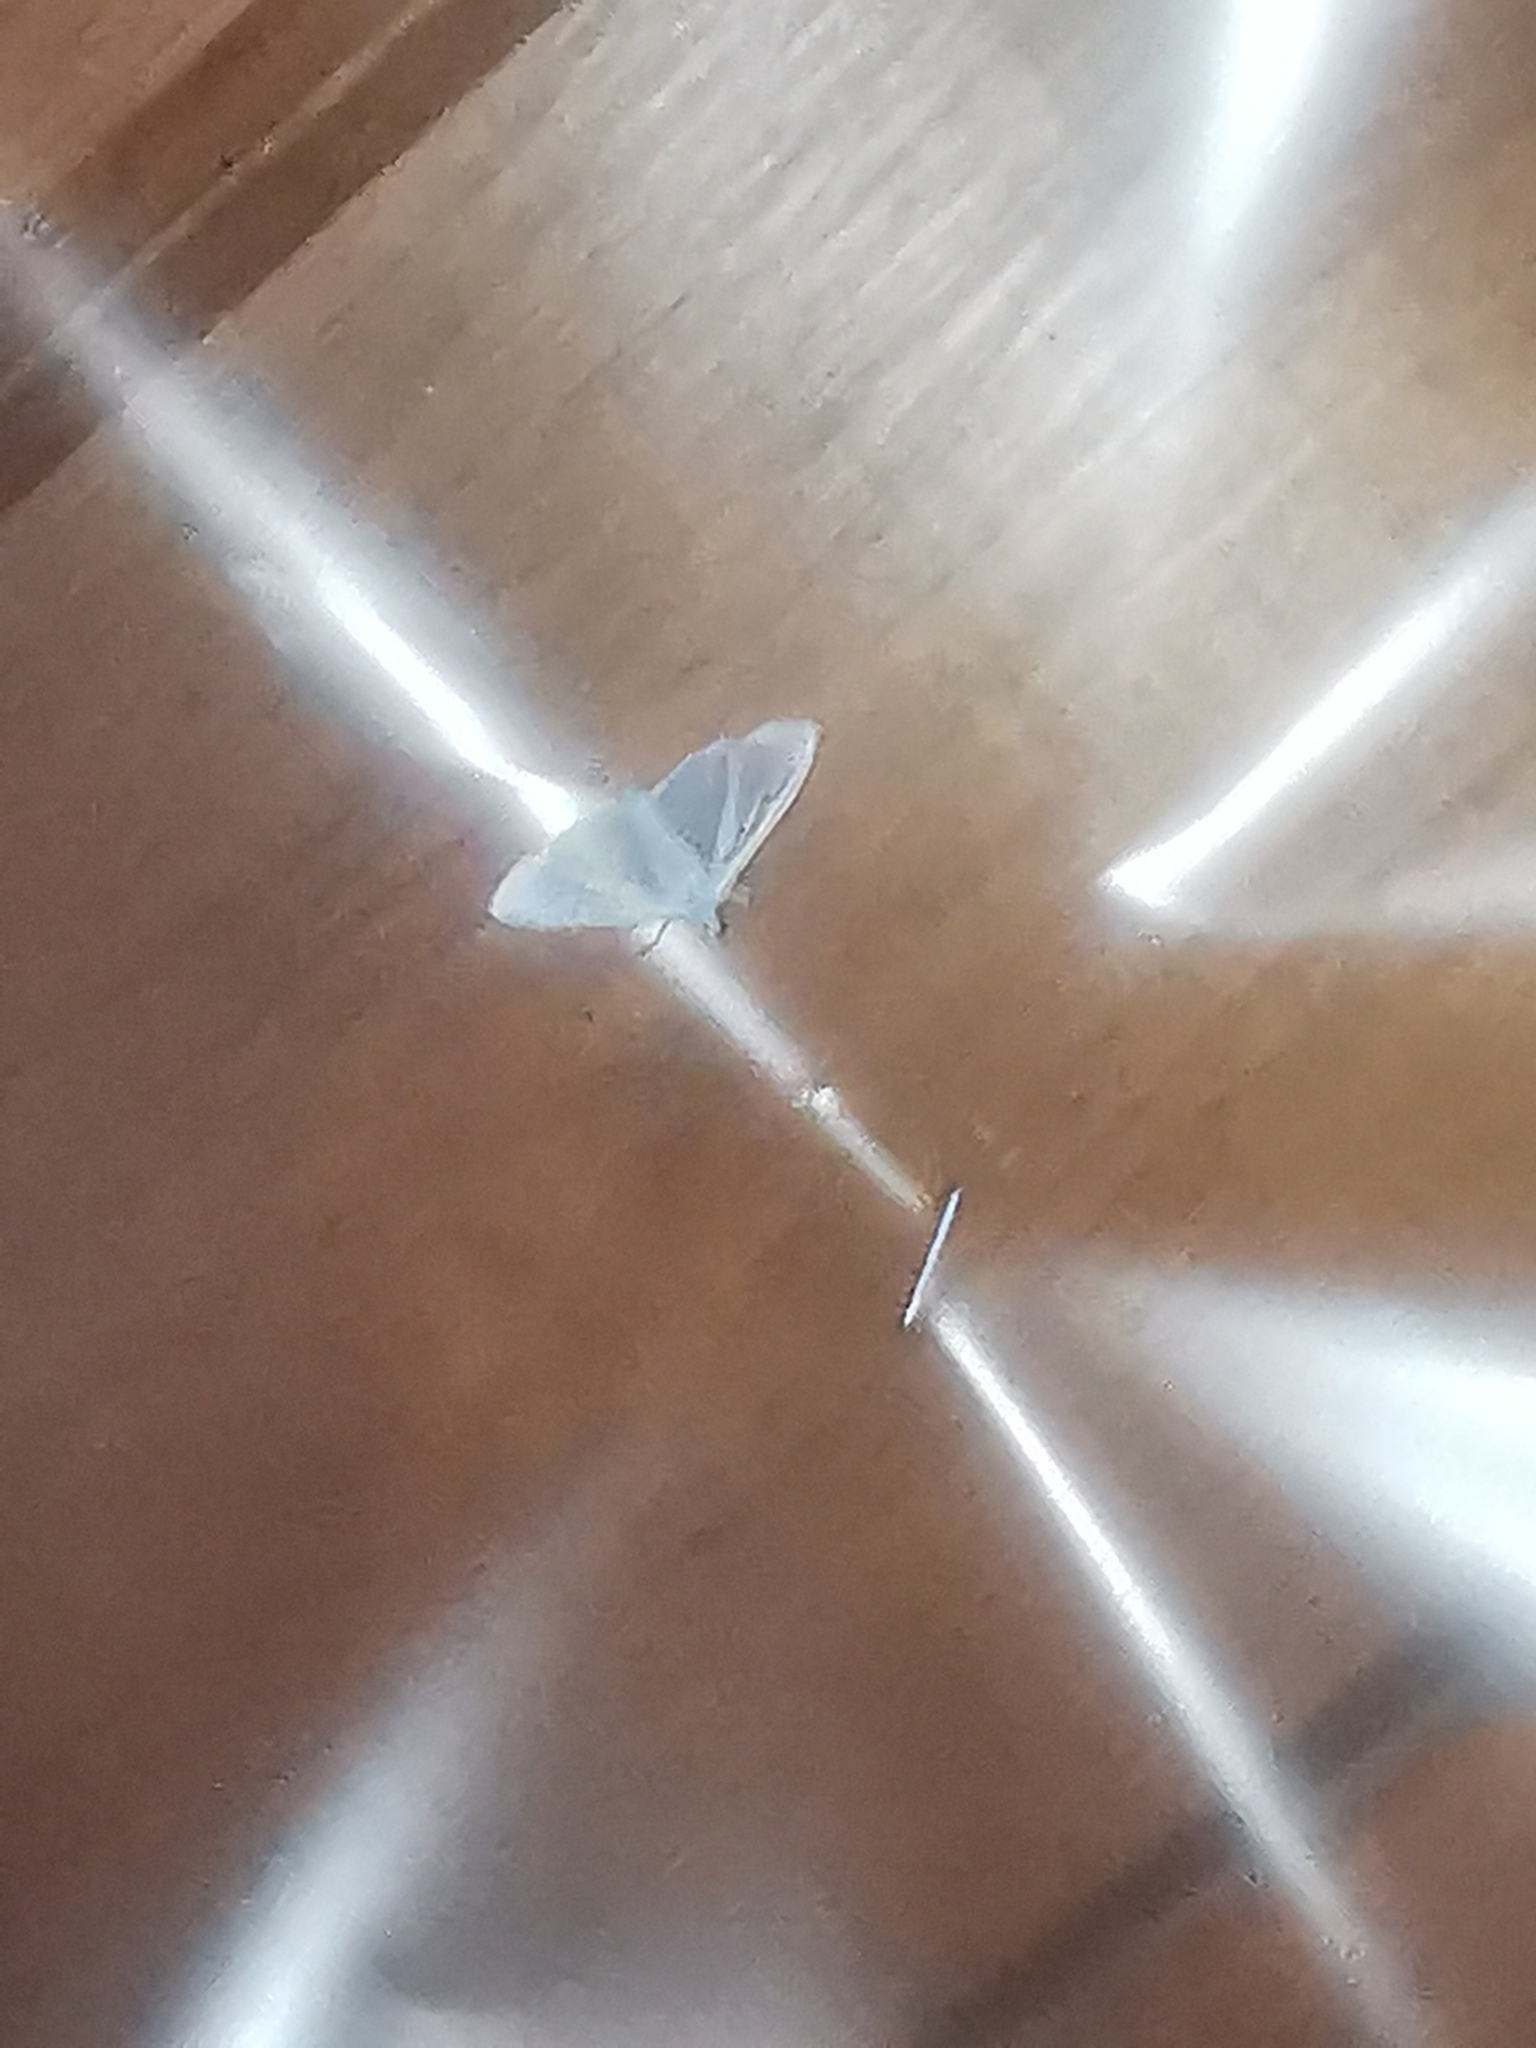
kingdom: Animalia
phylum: Arthropoda
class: Insecta
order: Lepidoptera
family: Crambidae
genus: Palpita
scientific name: Palpita vitrealis
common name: Olive-tree pearl
